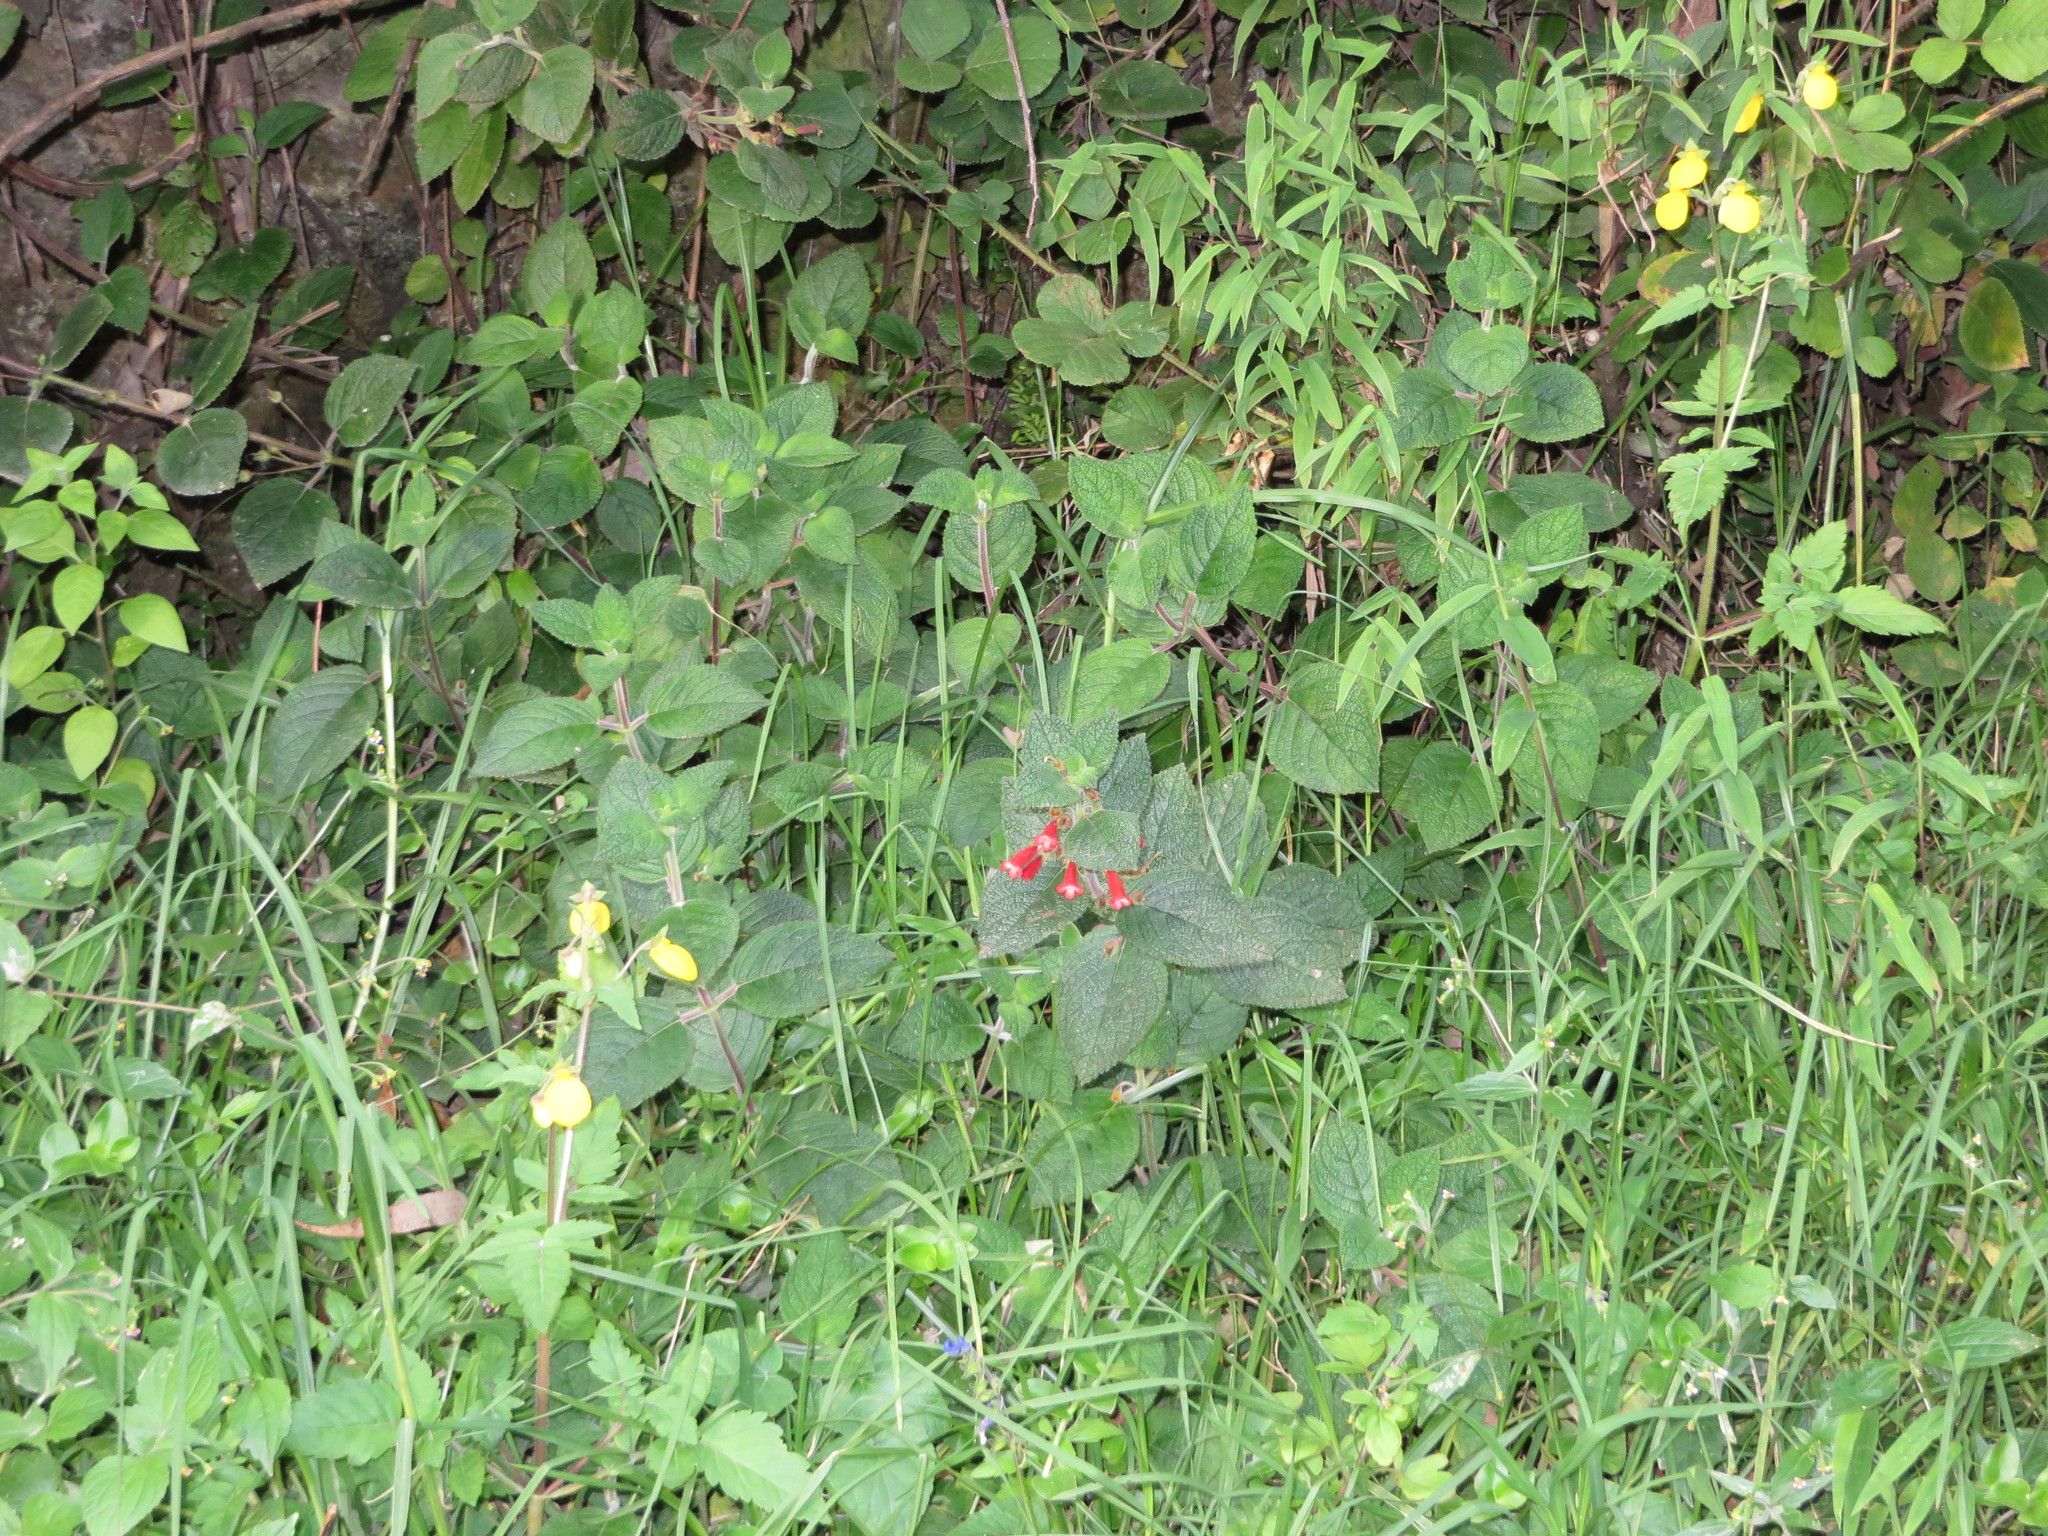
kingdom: Plantae
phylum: Tracheophyta
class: Magnoliopsida
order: Lamiales
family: Gesneriaceae
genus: Heppiella
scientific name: Heppiella ulmifolia
